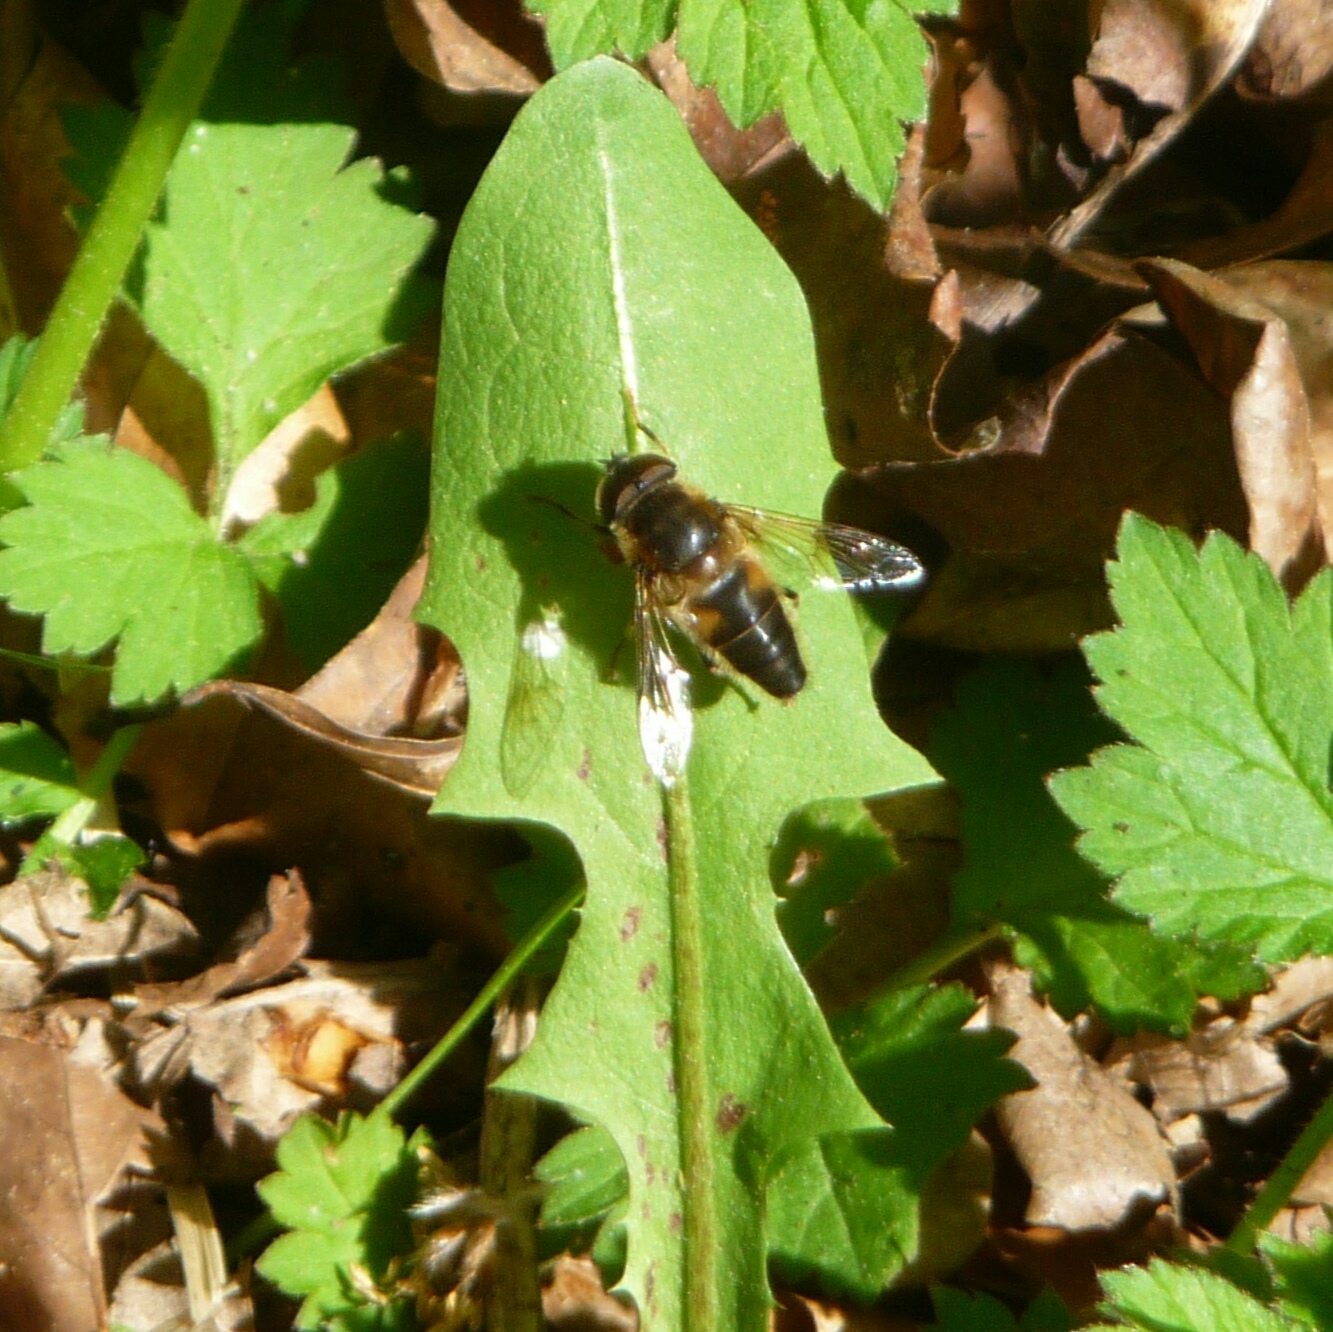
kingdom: Animalia
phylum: Arthropoda
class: Insecta
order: Diptera
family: Syrphidae
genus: Eristalis
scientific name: Eristalis pertinax
